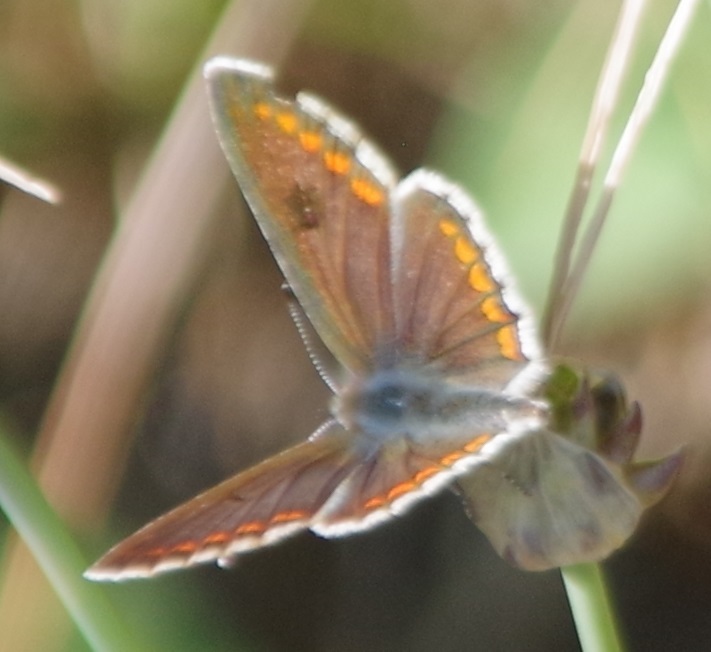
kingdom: Animalia
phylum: Arthropoda
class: Insecta
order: Lepidoptera
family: Lycaenidae
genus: Aricia
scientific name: Aricia agestis
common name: Brown argus
